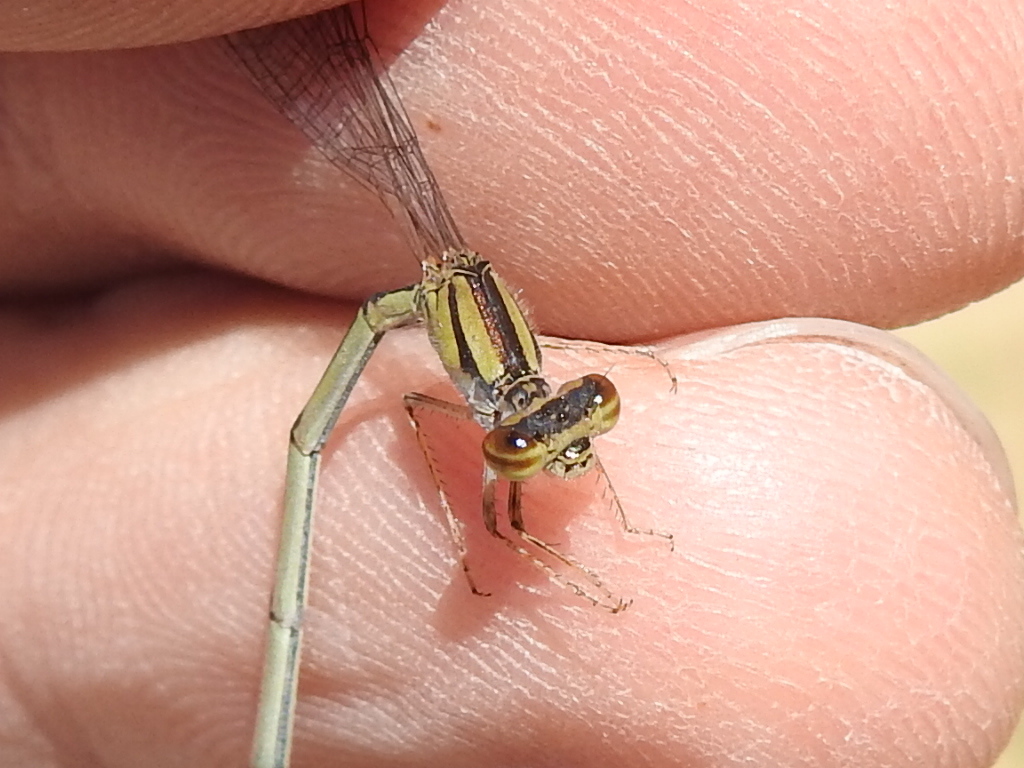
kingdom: Animalia
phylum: Arthropoda
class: Insecta
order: Odonata
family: Coenagrionidae
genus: Enallagma
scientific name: Enallagma civile
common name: Damselfly
